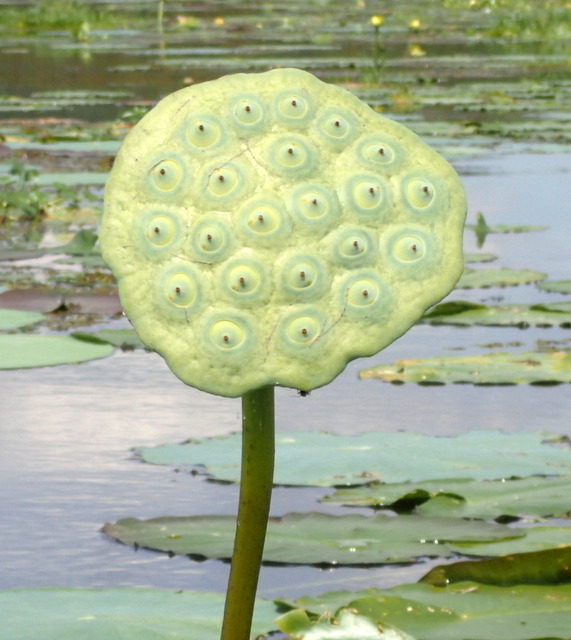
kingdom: Plantae
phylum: Tracheophyta
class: Magnoliopsida
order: Proteales
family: Nelumbonaceae
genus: Nelumbo
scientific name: Nelumbo lutea
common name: American lotus
